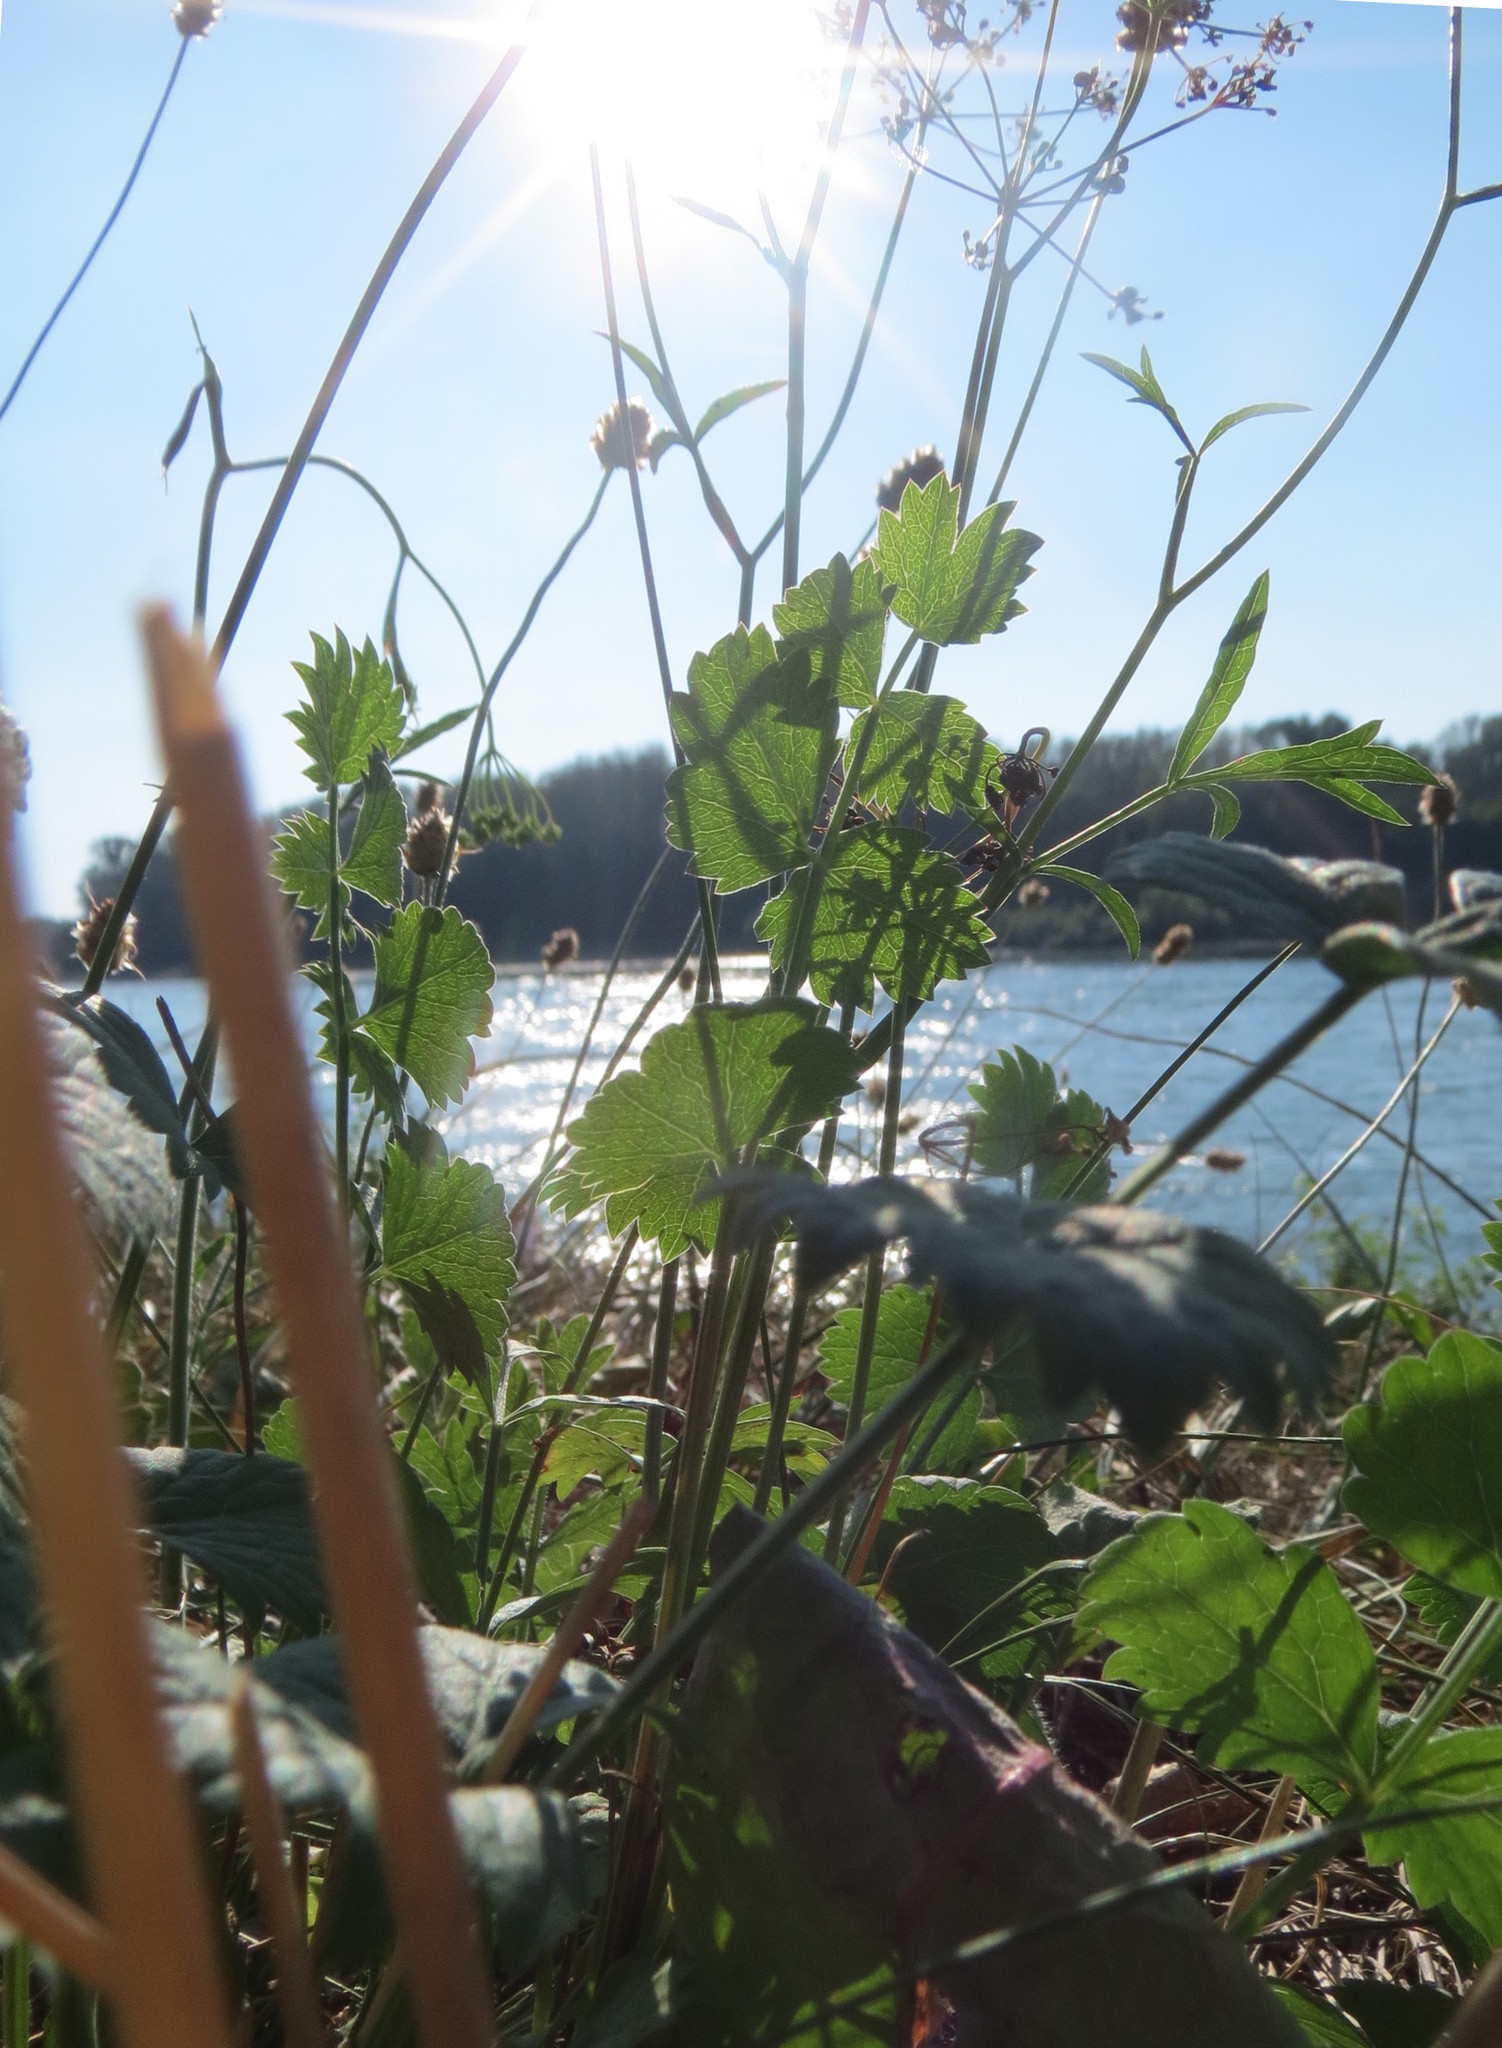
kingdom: Plantae
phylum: Tracheophyta
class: Magnoliopsida
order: Apiales
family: Apiaceae
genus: Pimpinella
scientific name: Pimpinella saxifraga
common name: Burnet-saxifrage
